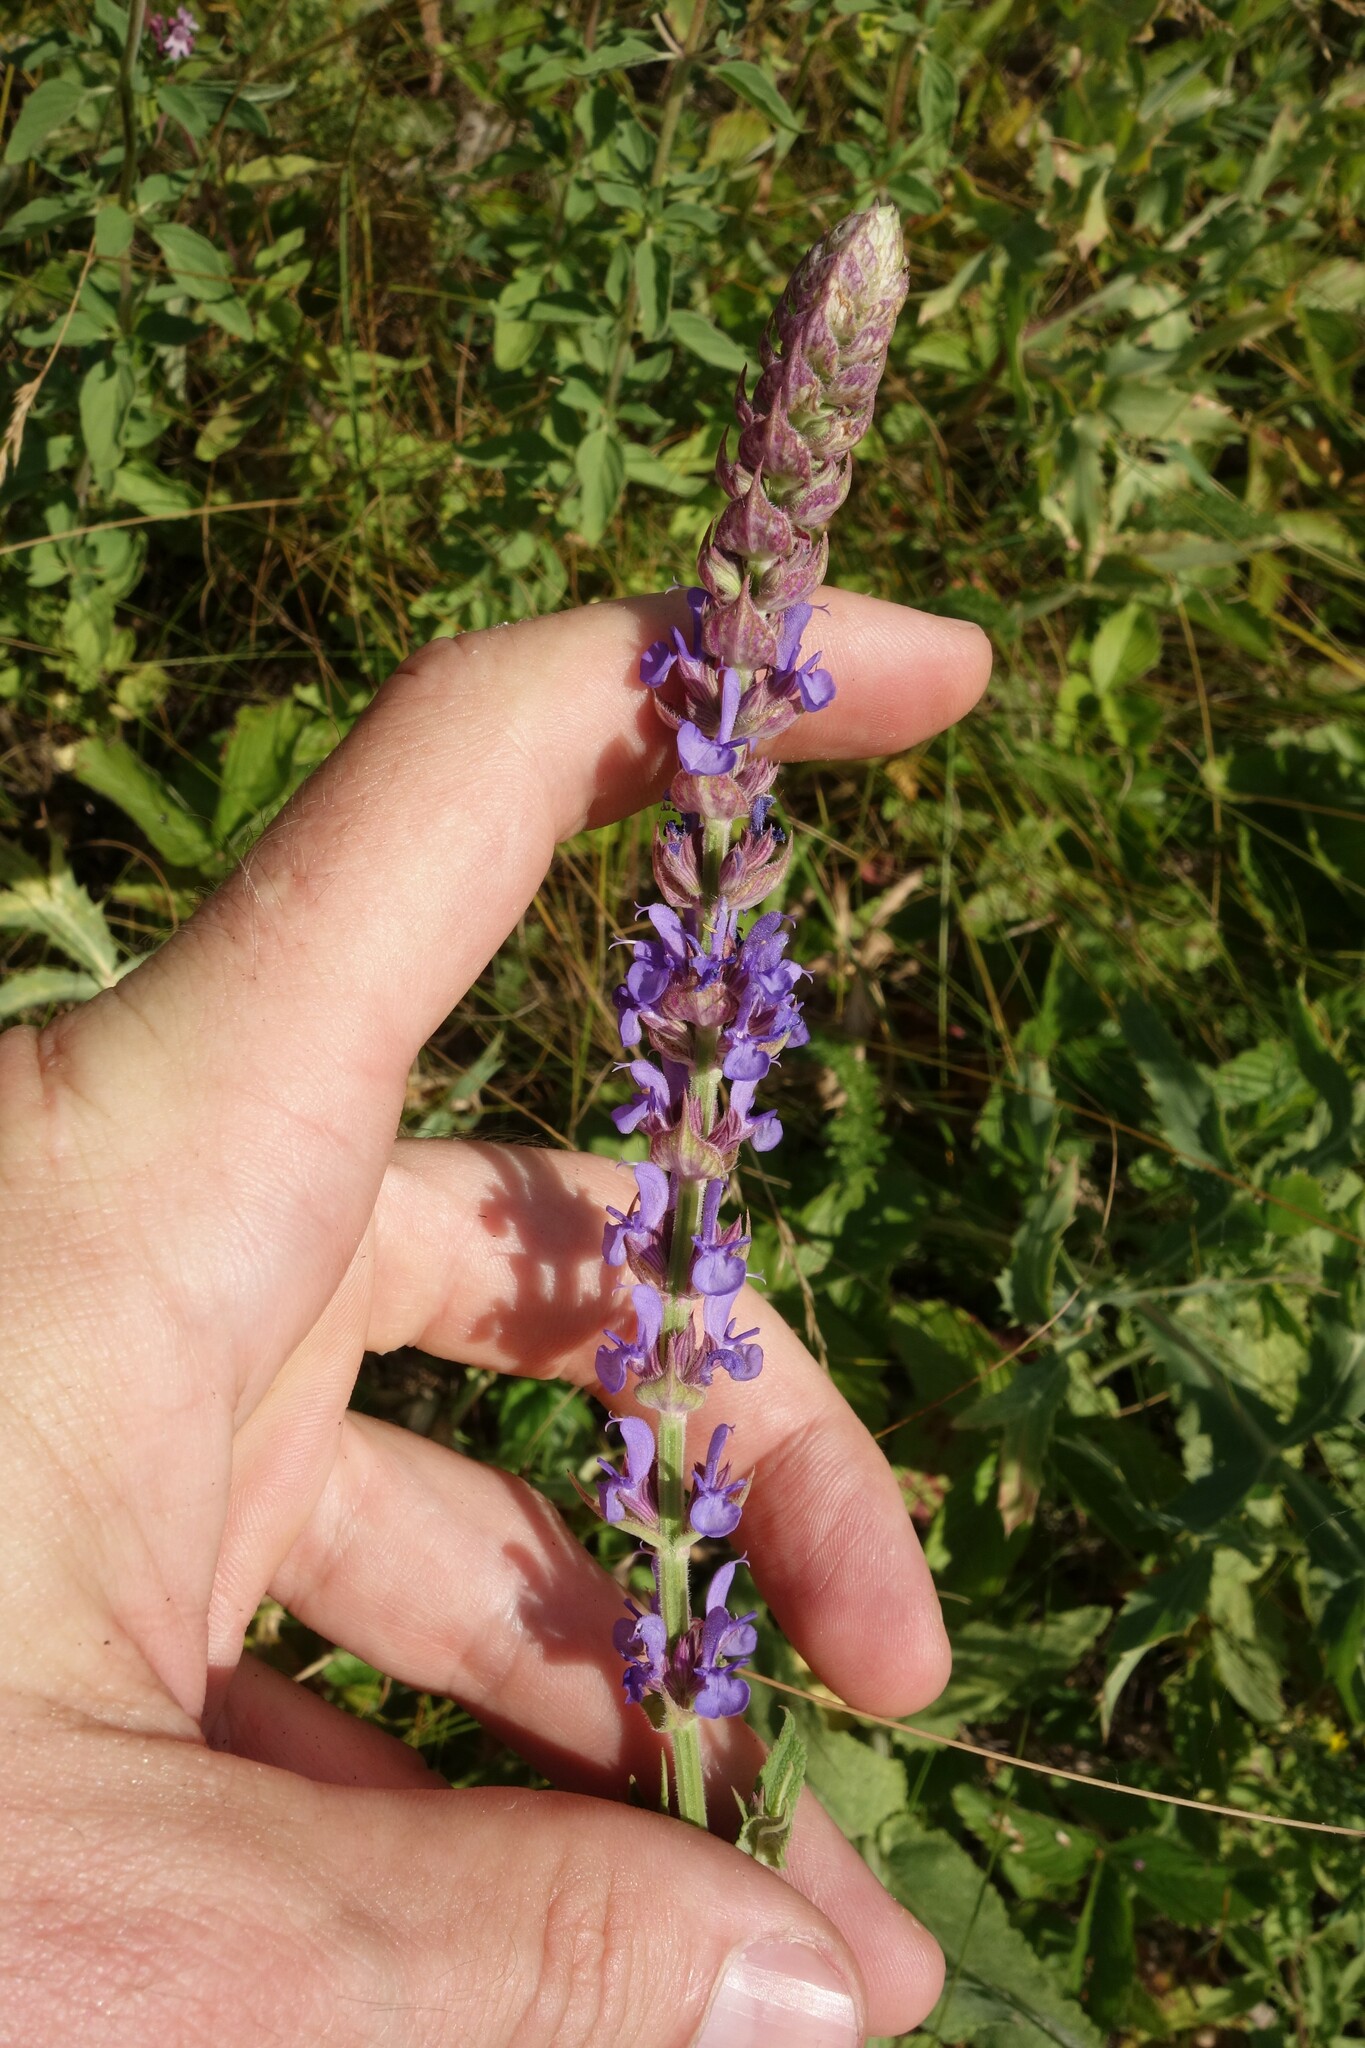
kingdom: Plantae
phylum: Tracheophyta
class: Magnoliopsida
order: Lamiales
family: Lamiaceae
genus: Salvia
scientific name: Salvia nemorosa
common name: Balkan clary
